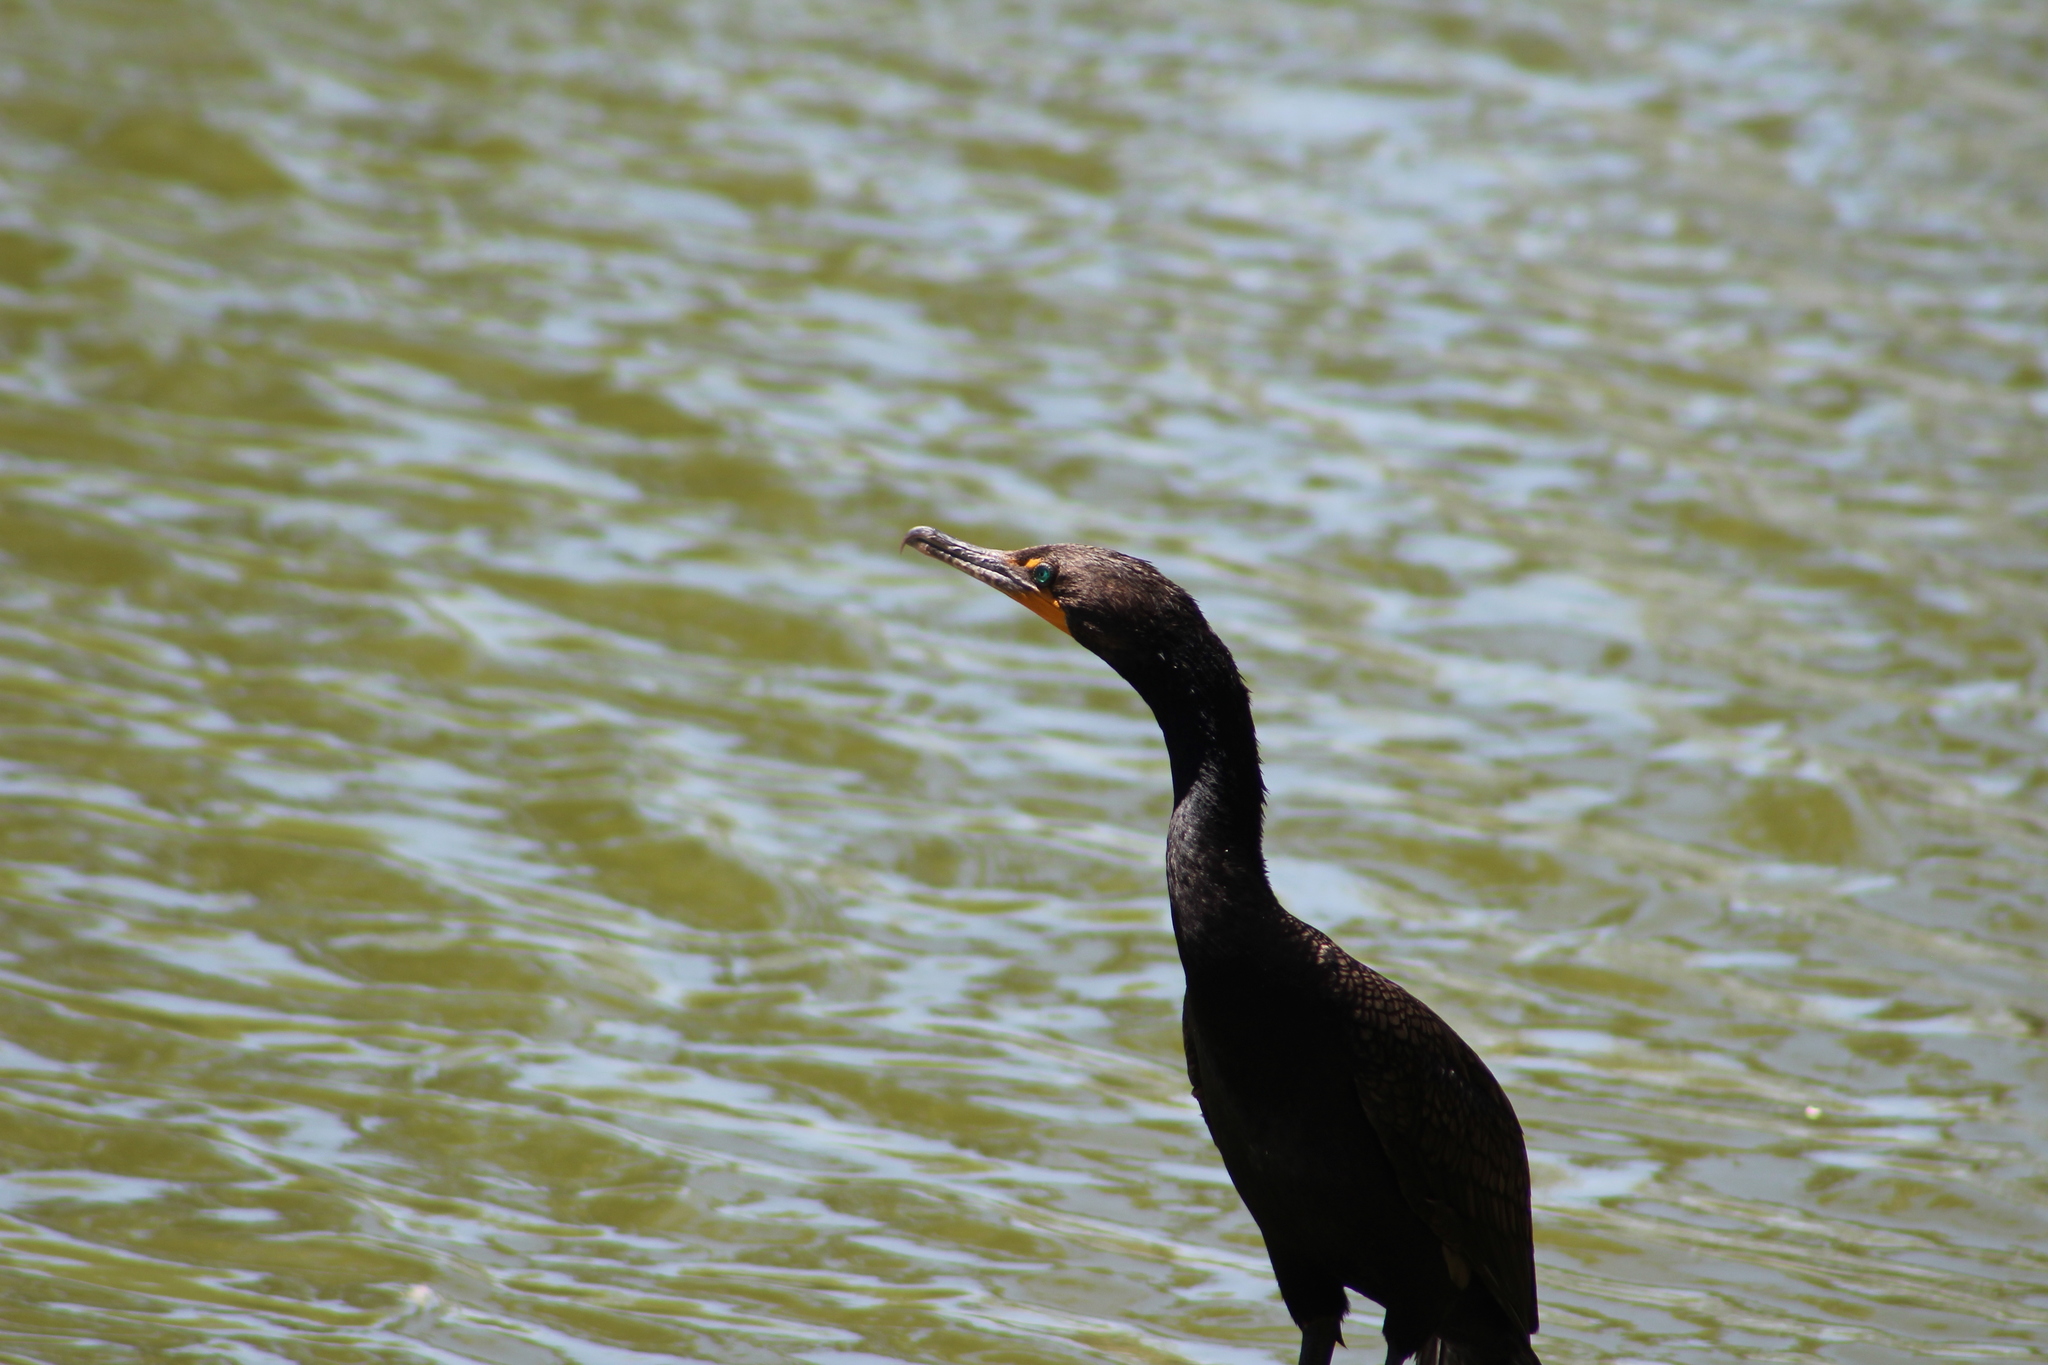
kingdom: Animalia
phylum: Chordata
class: Aves
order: Suliformes
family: Phalacrocoracidae
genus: Phalacrocorax
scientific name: Phalacrocorax auritus
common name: Double-crested cormorant
